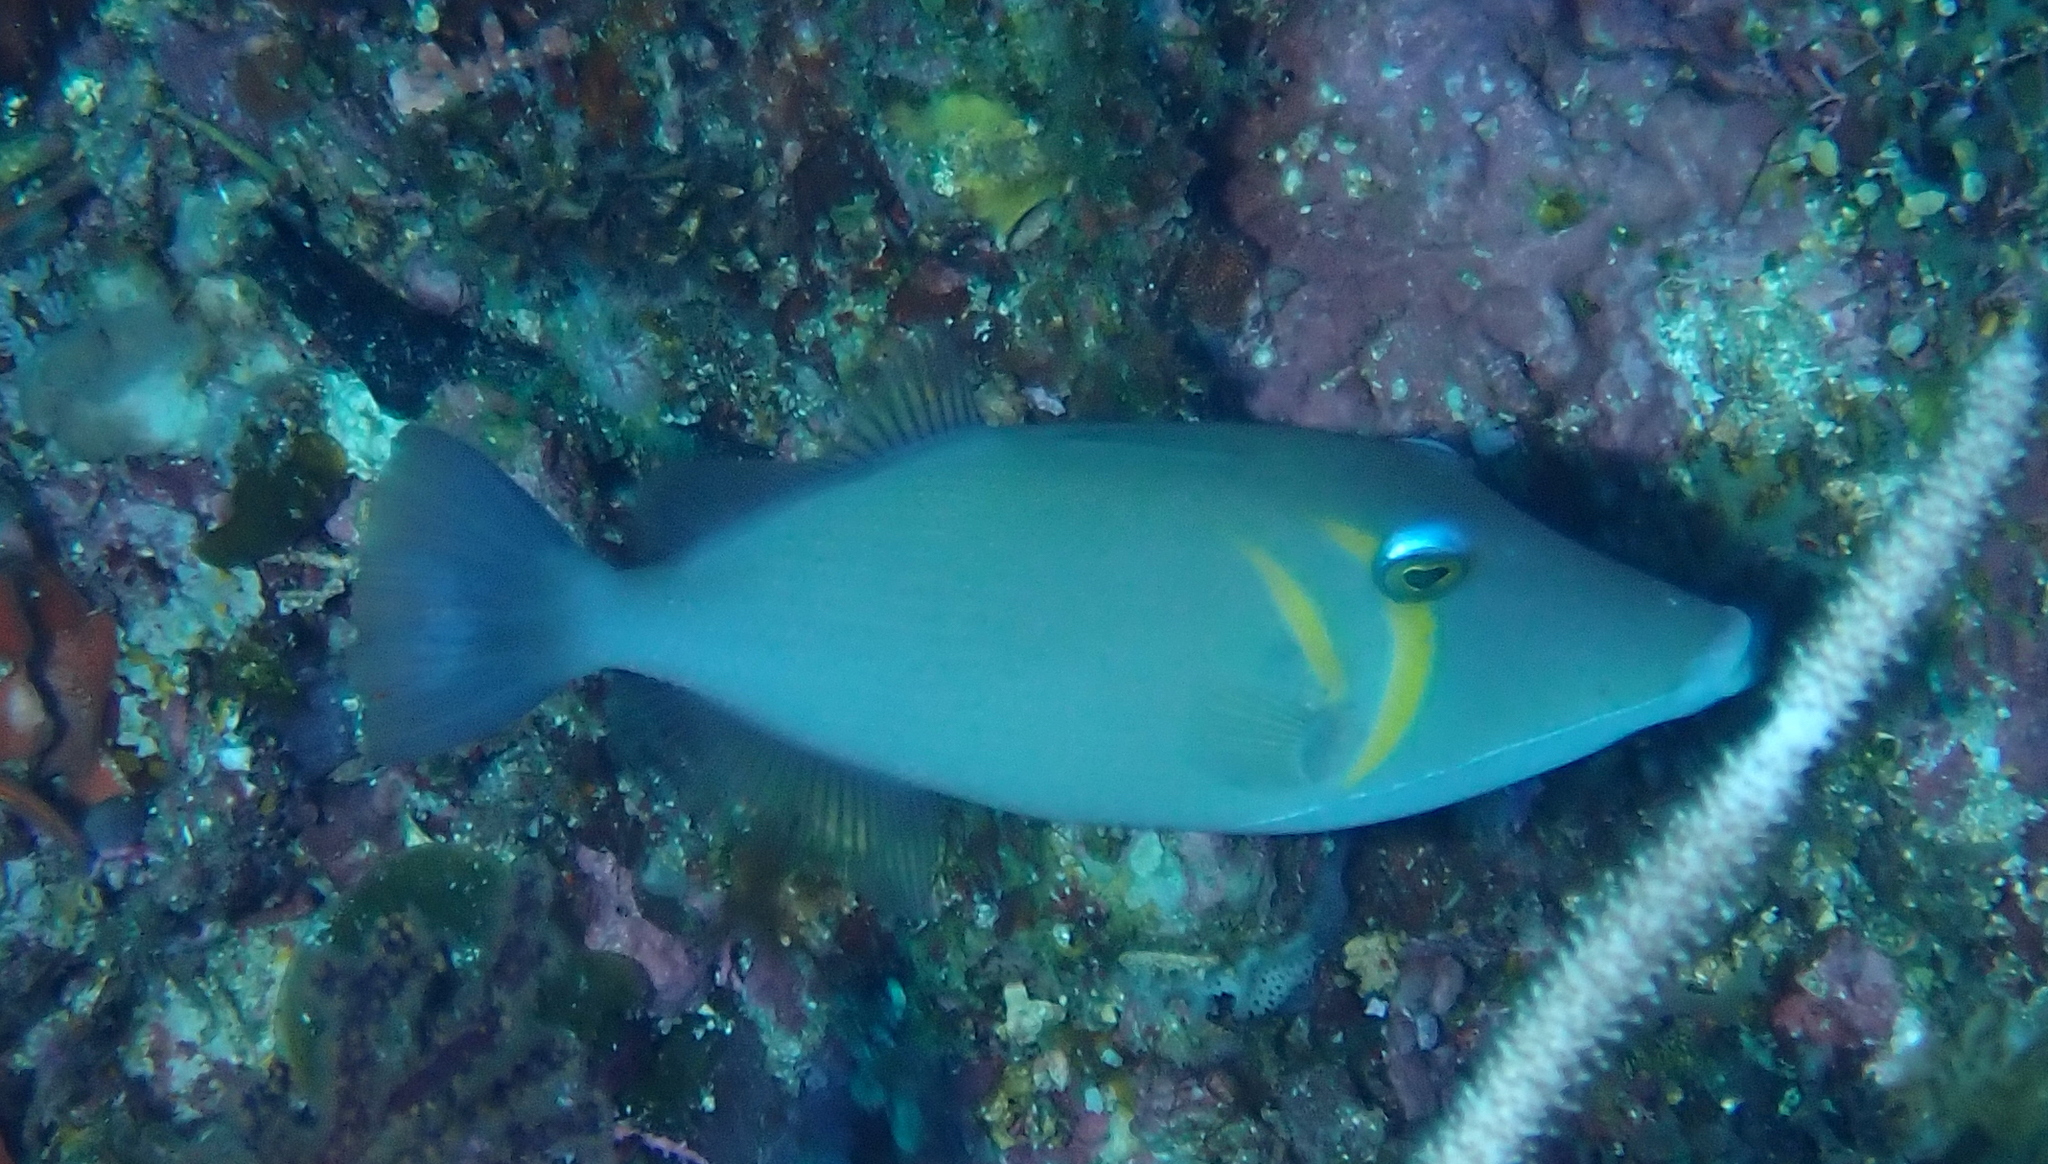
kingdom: Animalia
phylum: Chordata
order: Tetraodontiformes
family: Balistidae
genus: Sufflamen
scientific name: Sufflamen bursa
